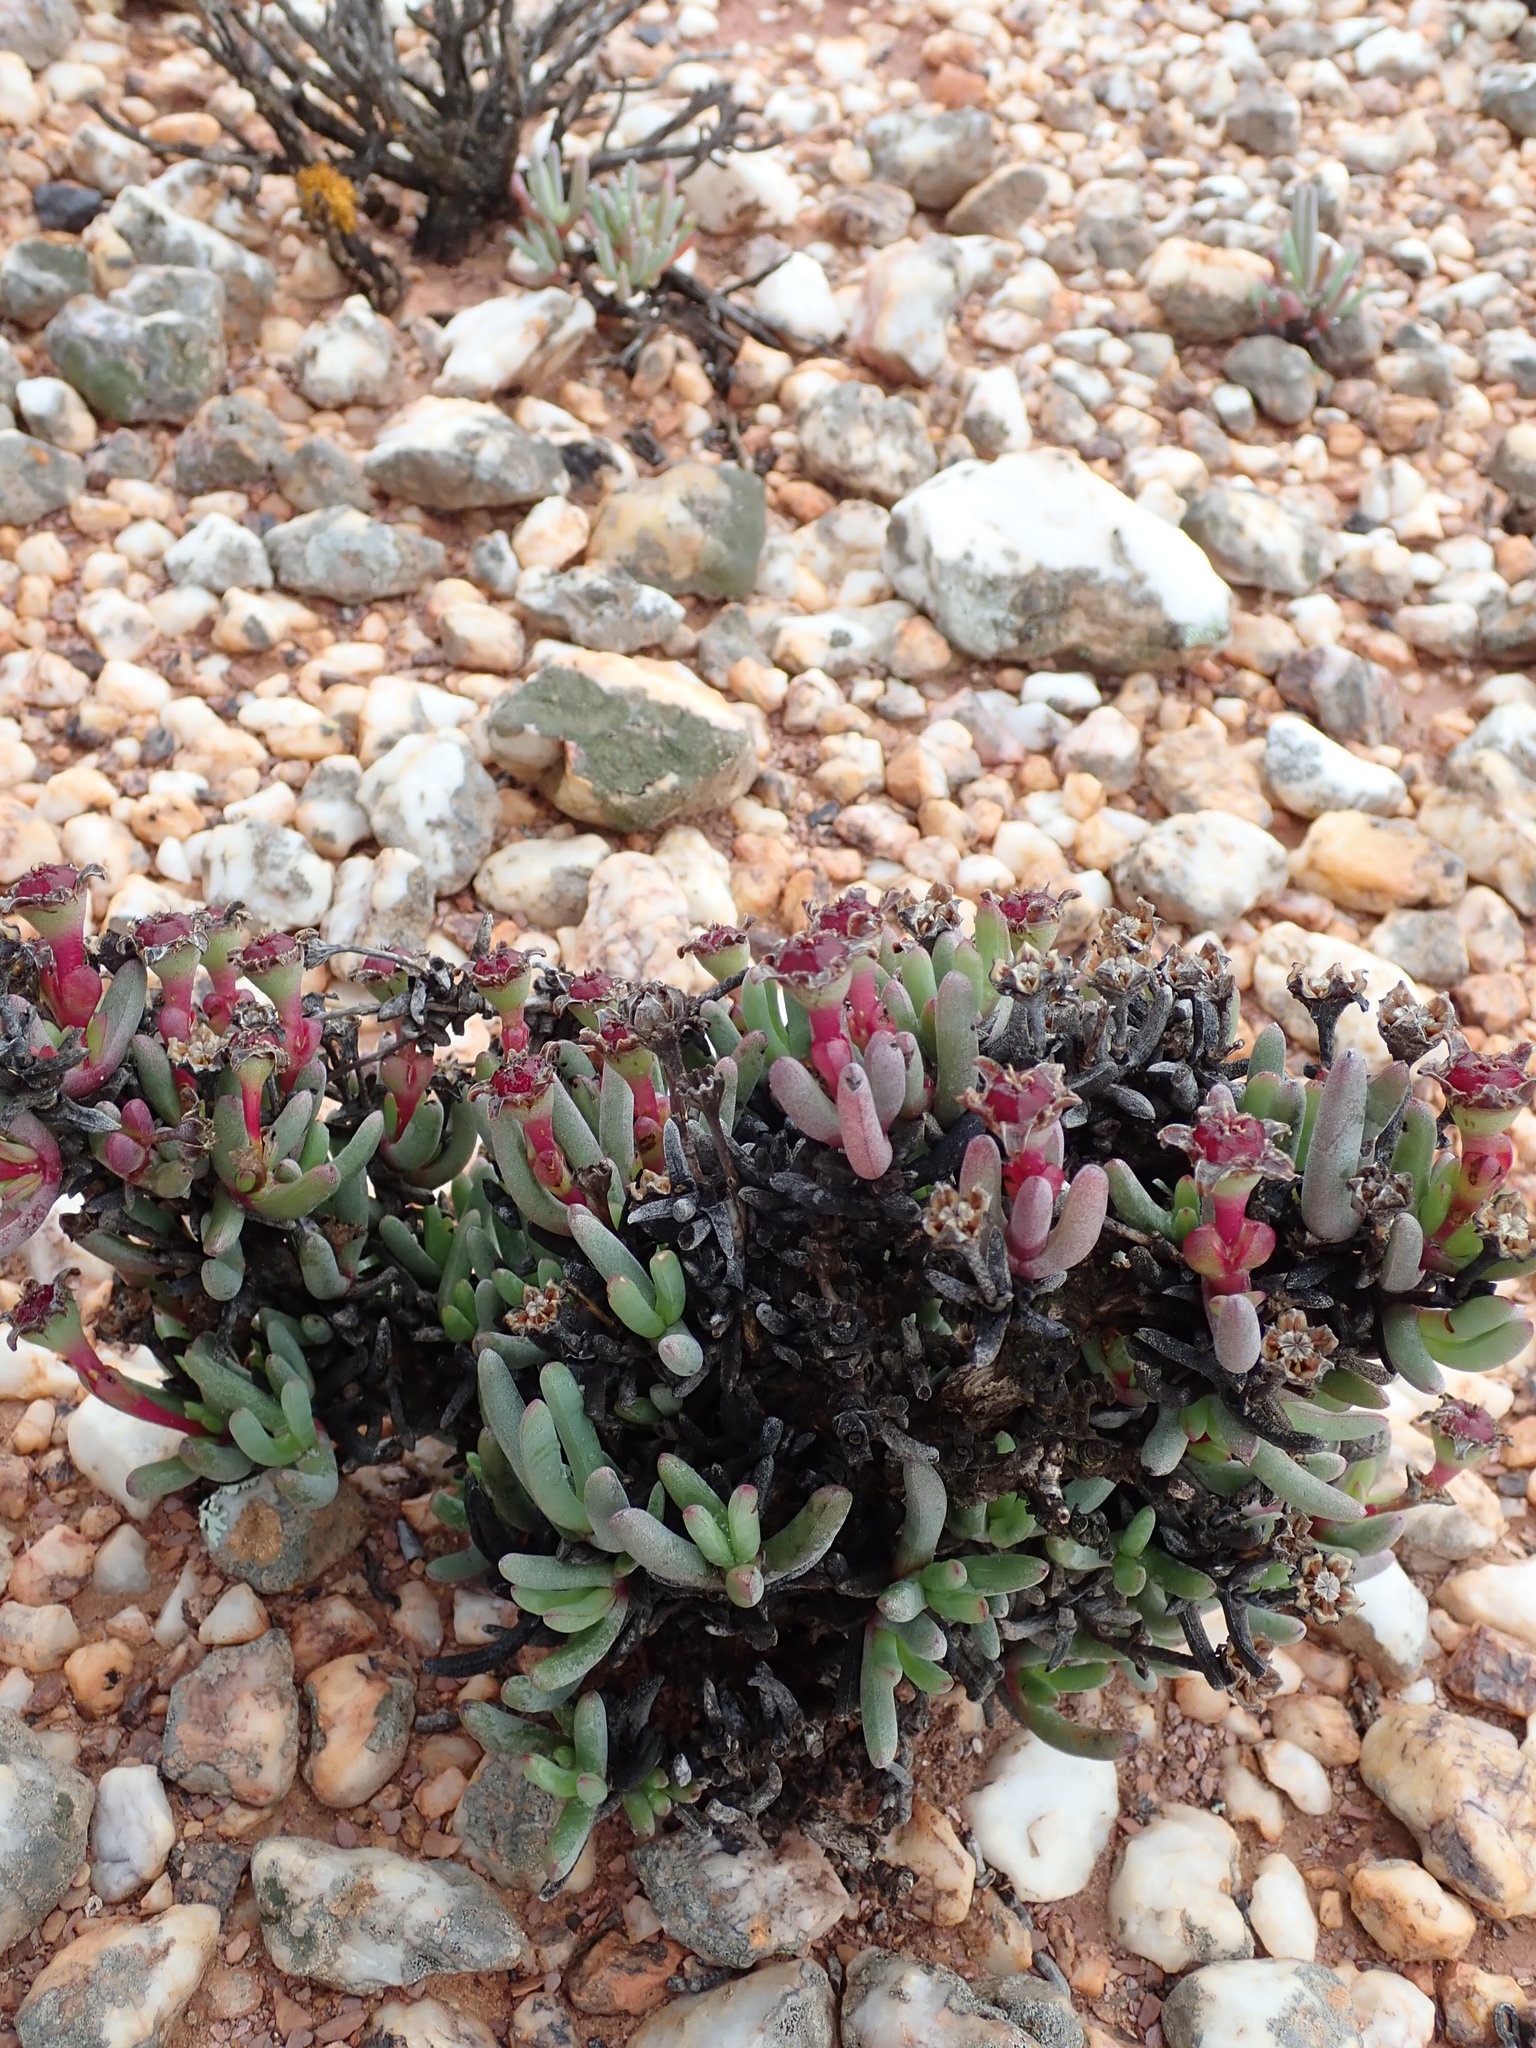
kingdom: Plantae
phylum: Tracheophyta
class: Magnoliopsida
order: Caryophyllales
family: Aizoaceae
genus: Ruschia
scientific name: Ruschia aggregata
